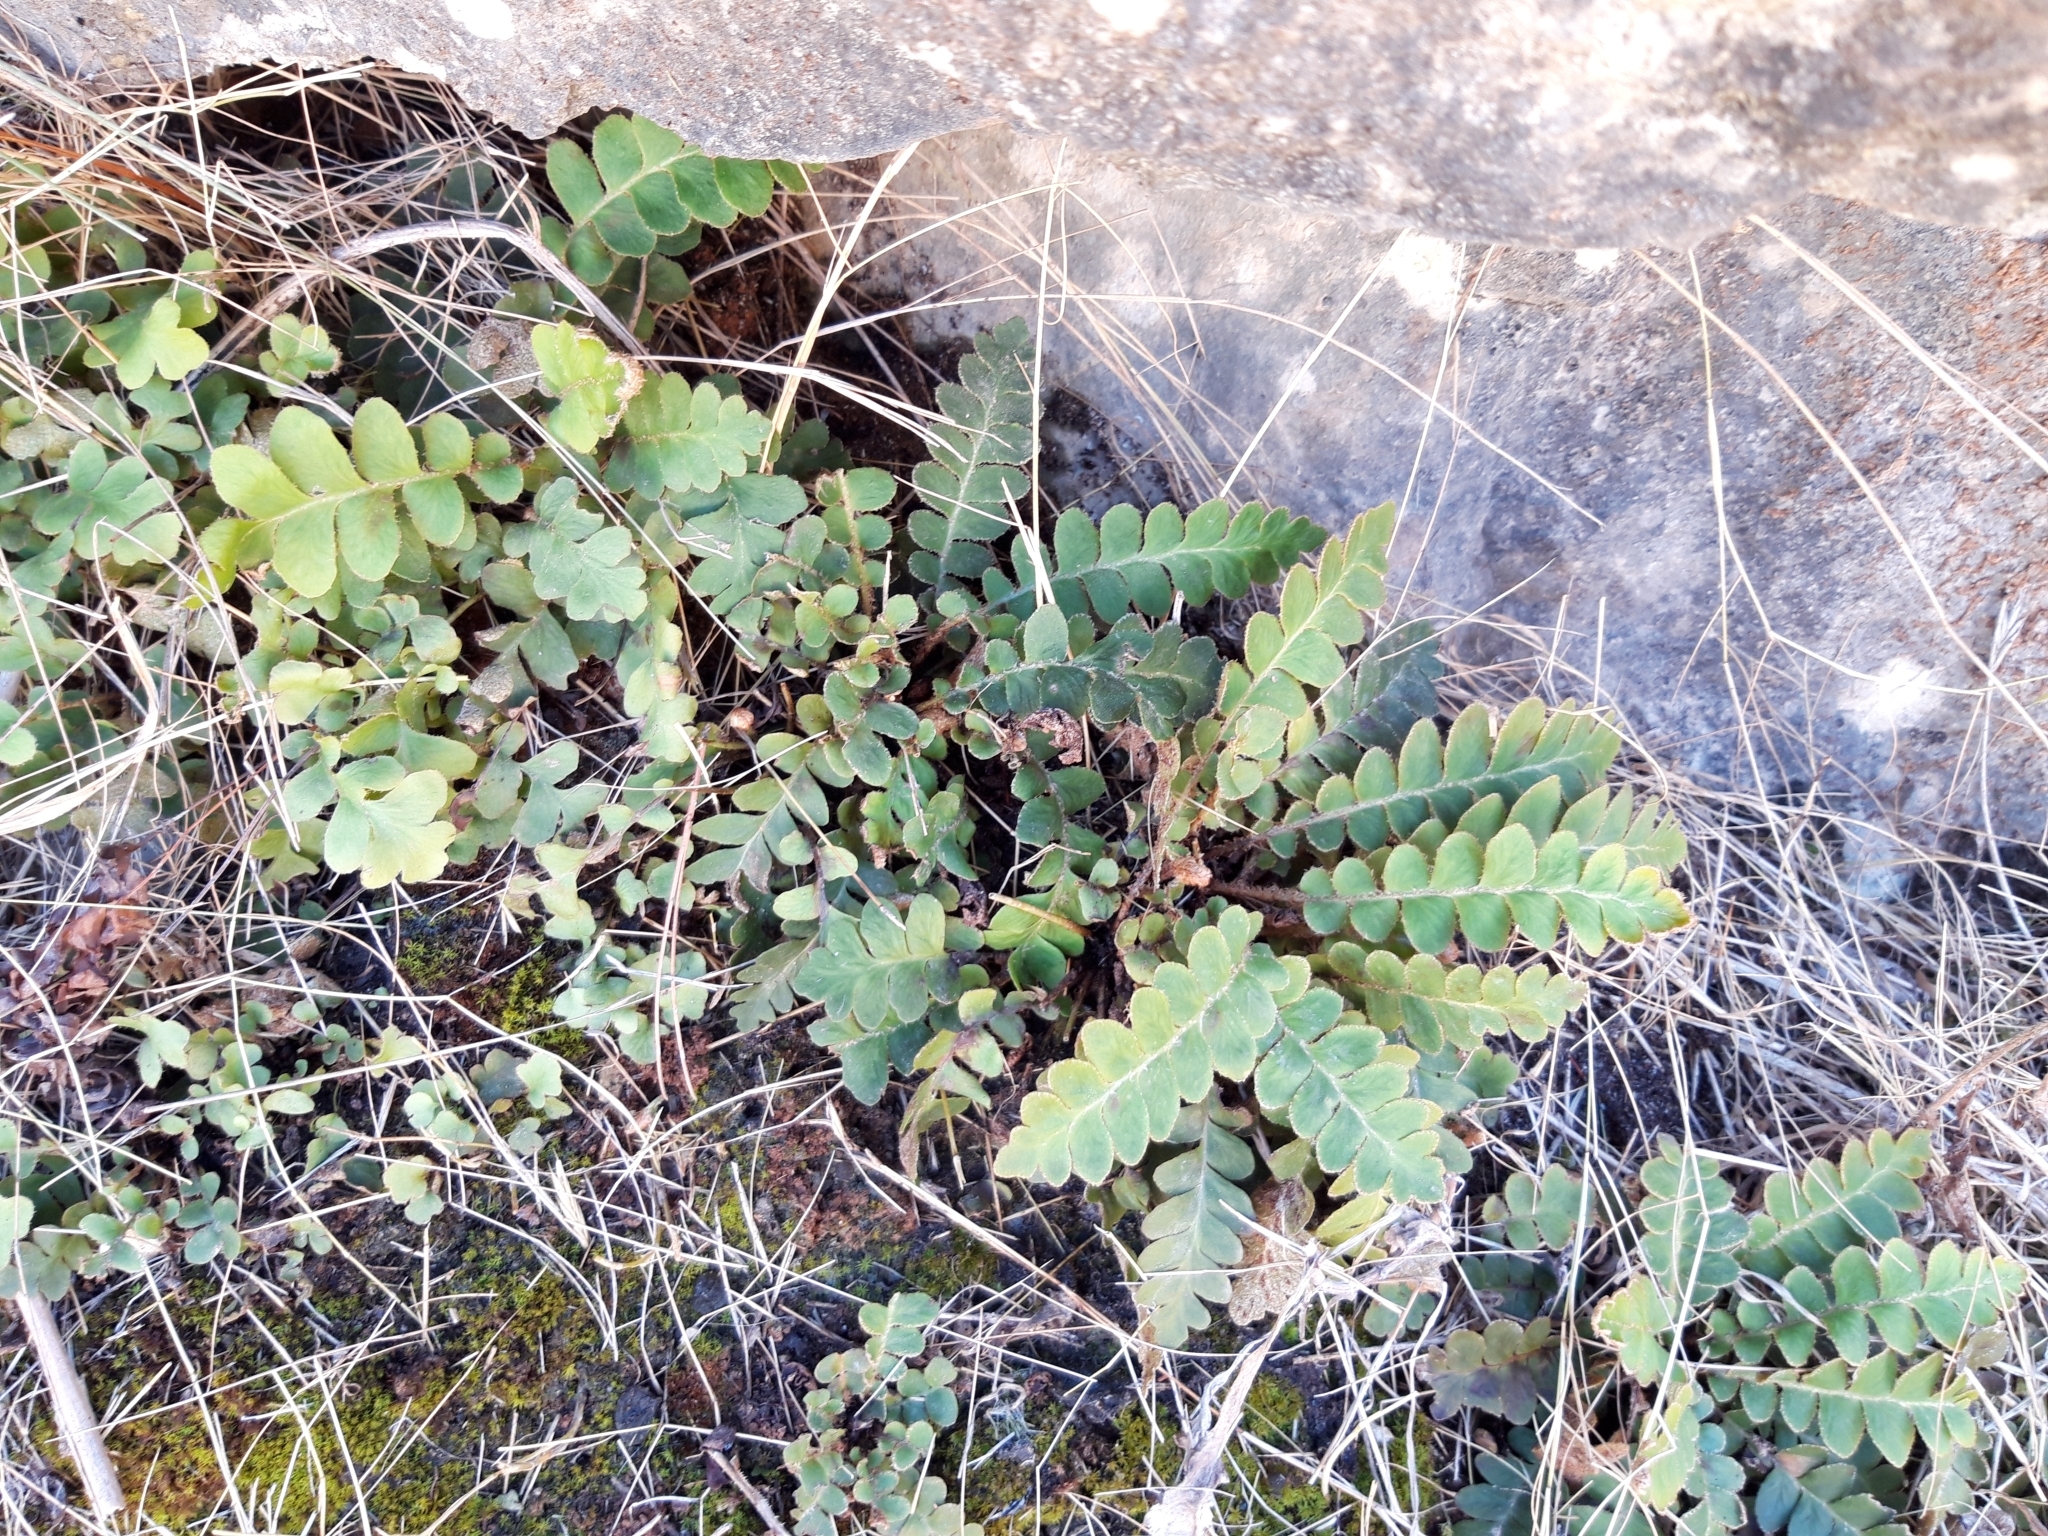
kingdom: Plantae
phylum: Tracheophyta
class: Polypodiopsida
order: Polypodiales
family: Aspleniaceae
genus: Asplenium
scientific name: Asplenium ceterach
